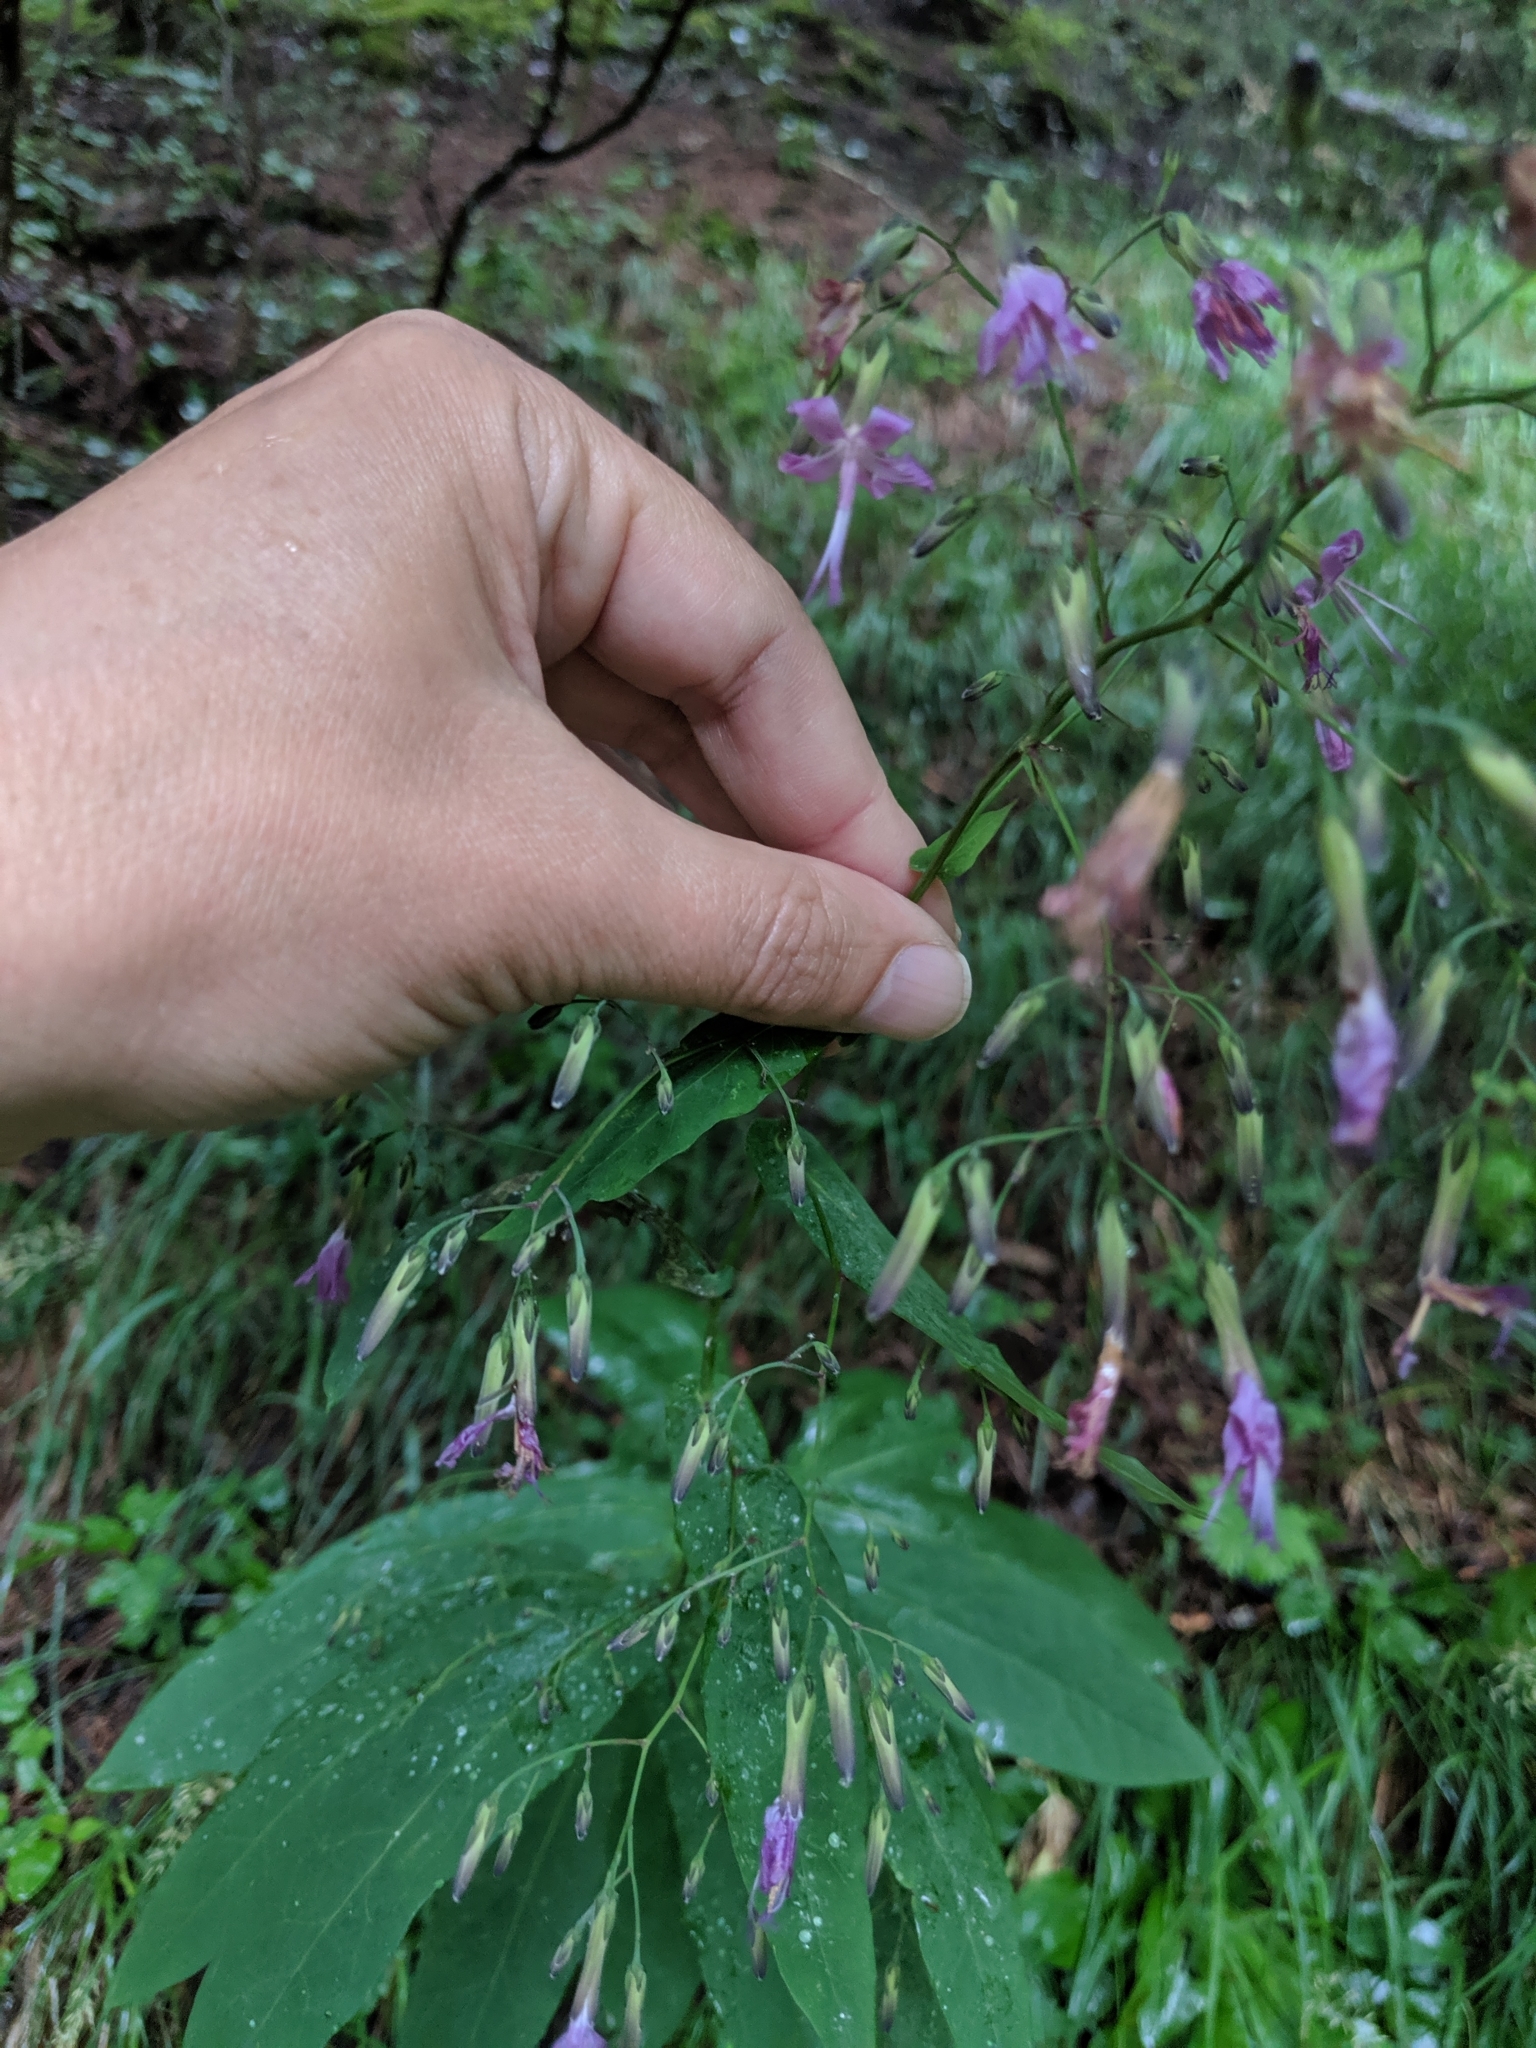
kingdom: Plantae
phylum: Tracheophyta
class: Magnoliopsida
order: Asterales
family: Asteraceae
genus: Prenanthes
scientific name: Prenanthes purpurea
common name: Purple lettuce
